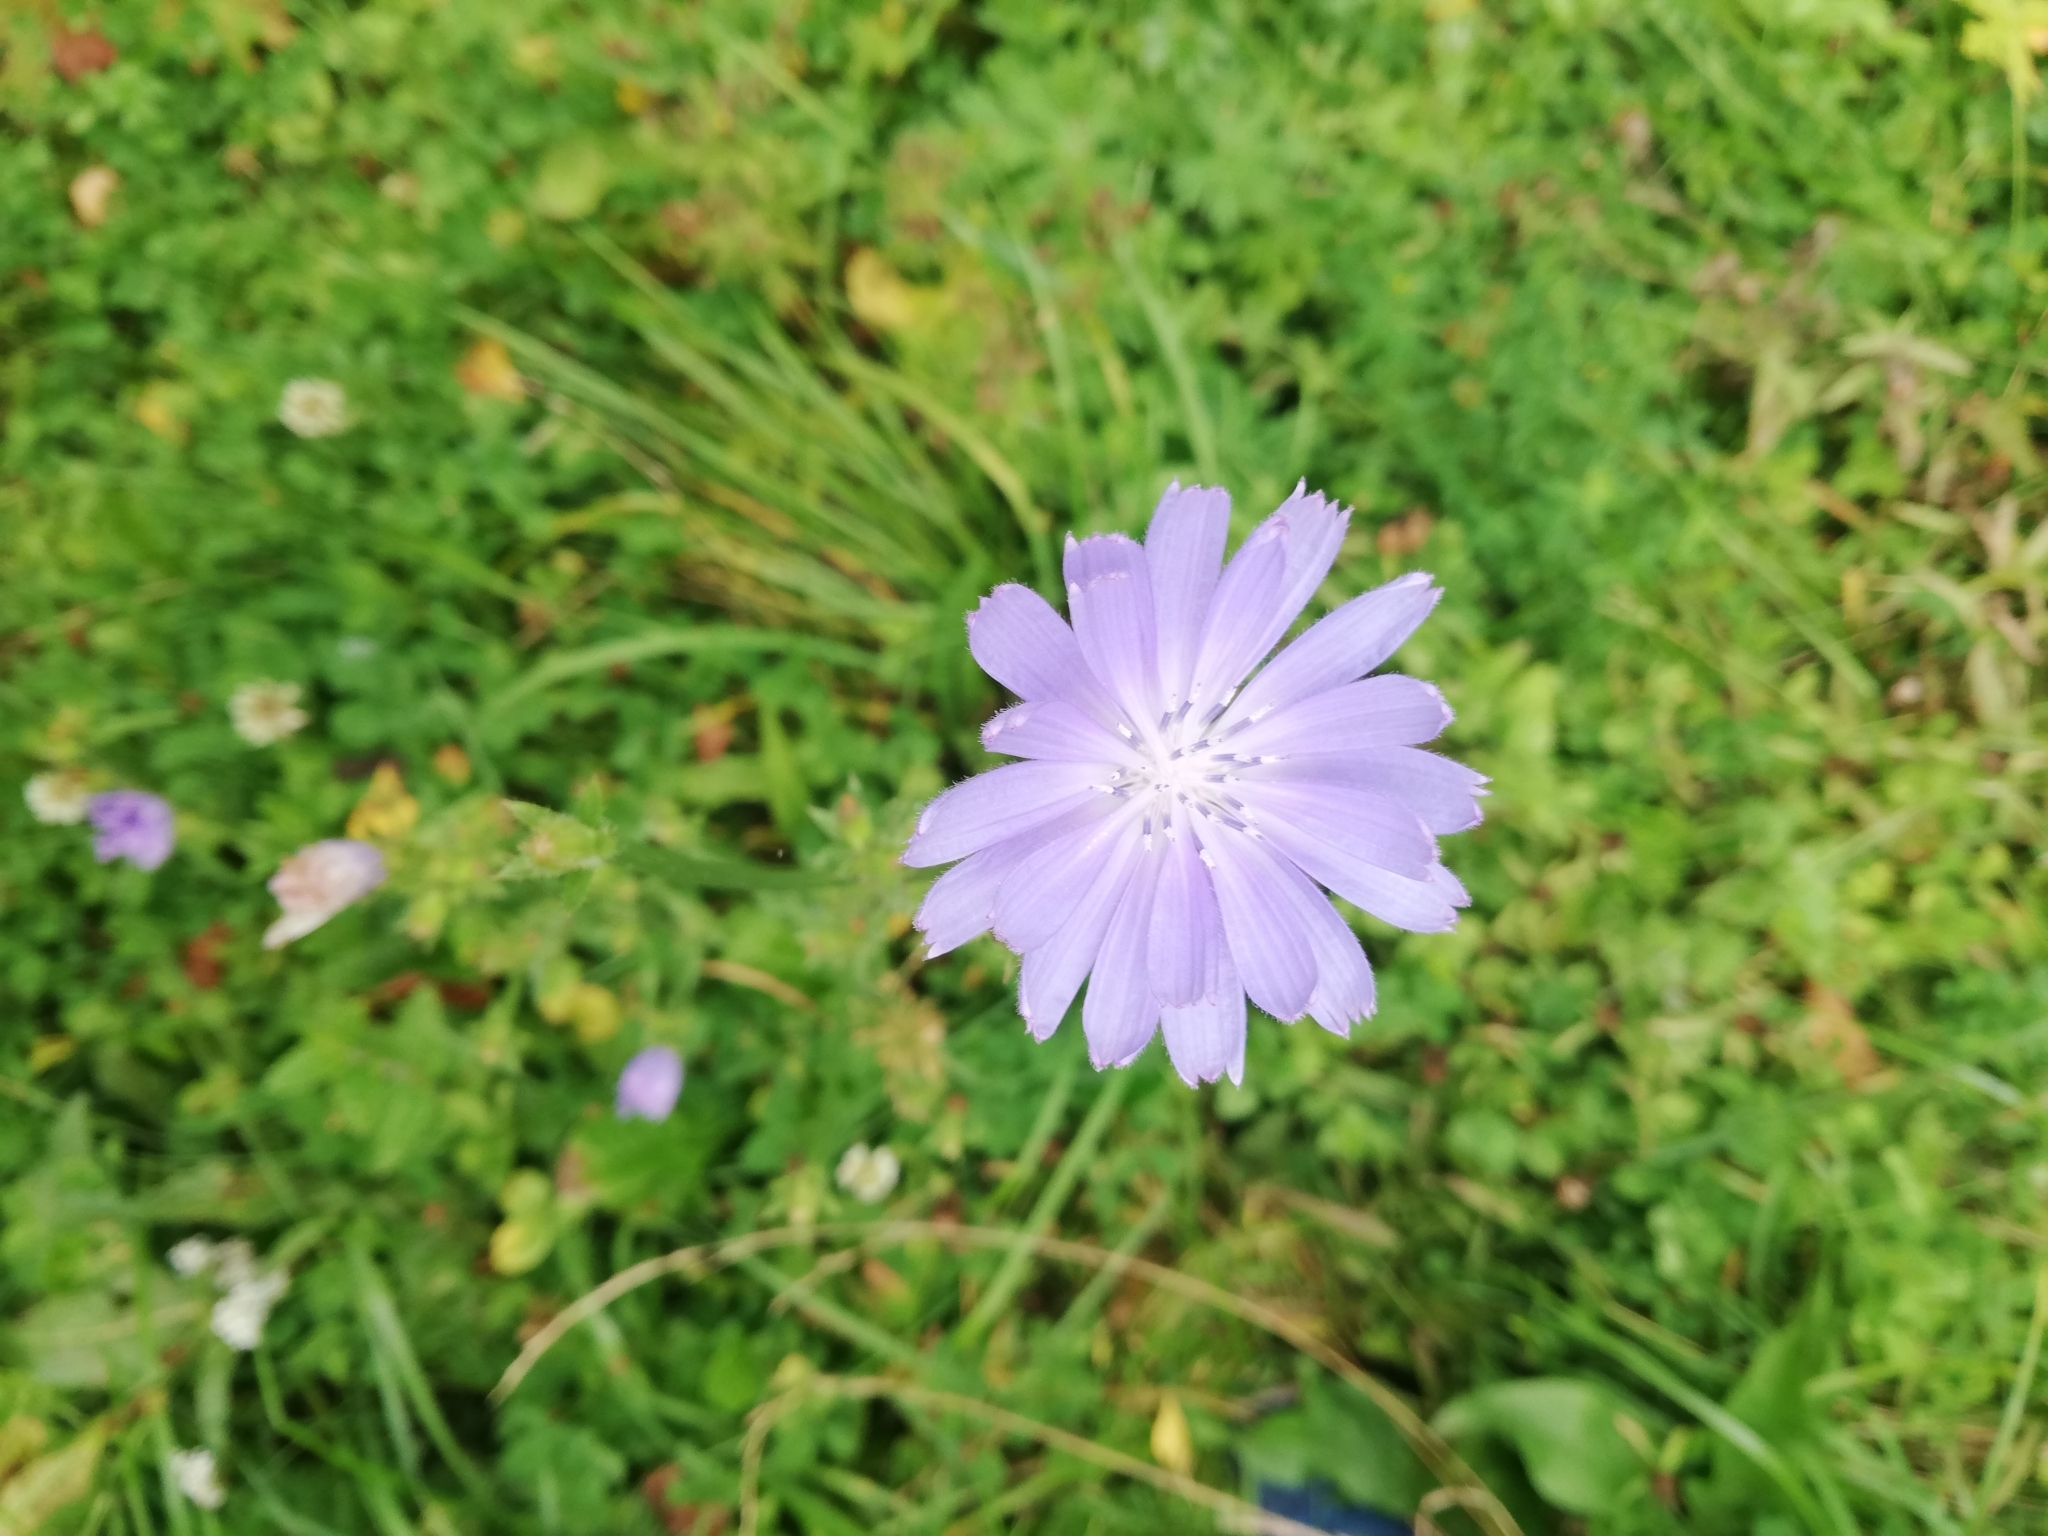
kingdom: Plantae
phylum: Tracheophyta
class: Magnoliopsida
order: Asterales
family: Asteraceae
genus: Cichorium
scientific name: Cichorium intybus
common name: Chicory
